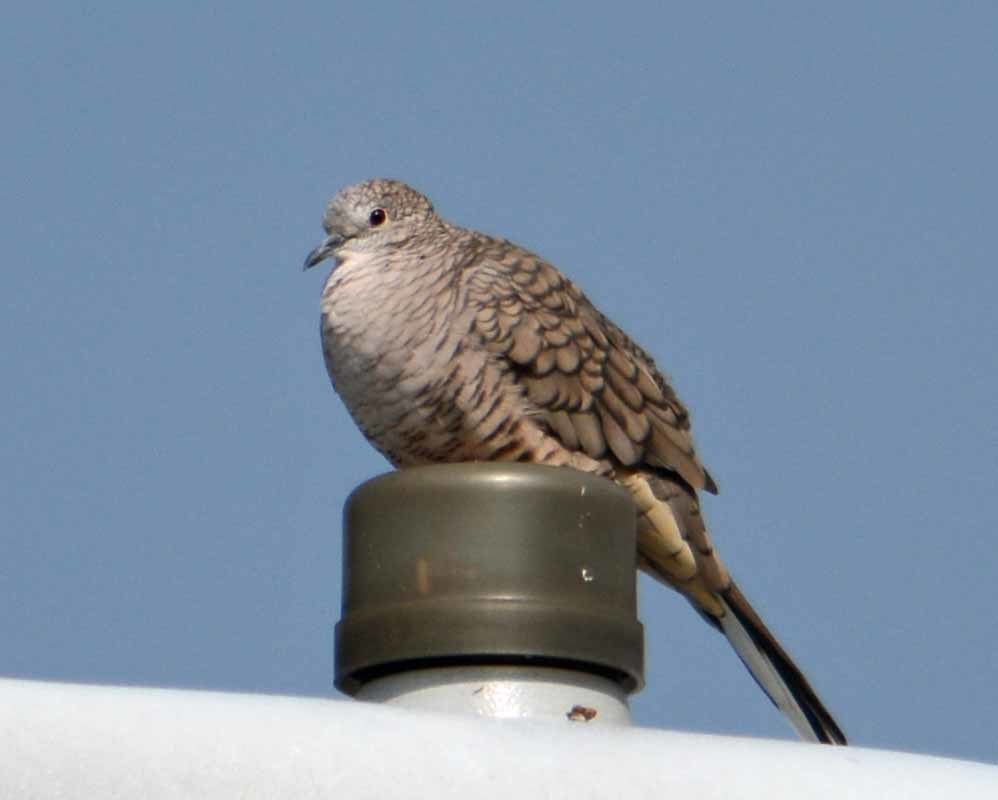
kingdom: Animalia
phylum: Chordata
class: Aves
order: Columbiformes
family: Columbidae
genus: Columbina
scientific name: Columbina inca
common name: Inca dove
